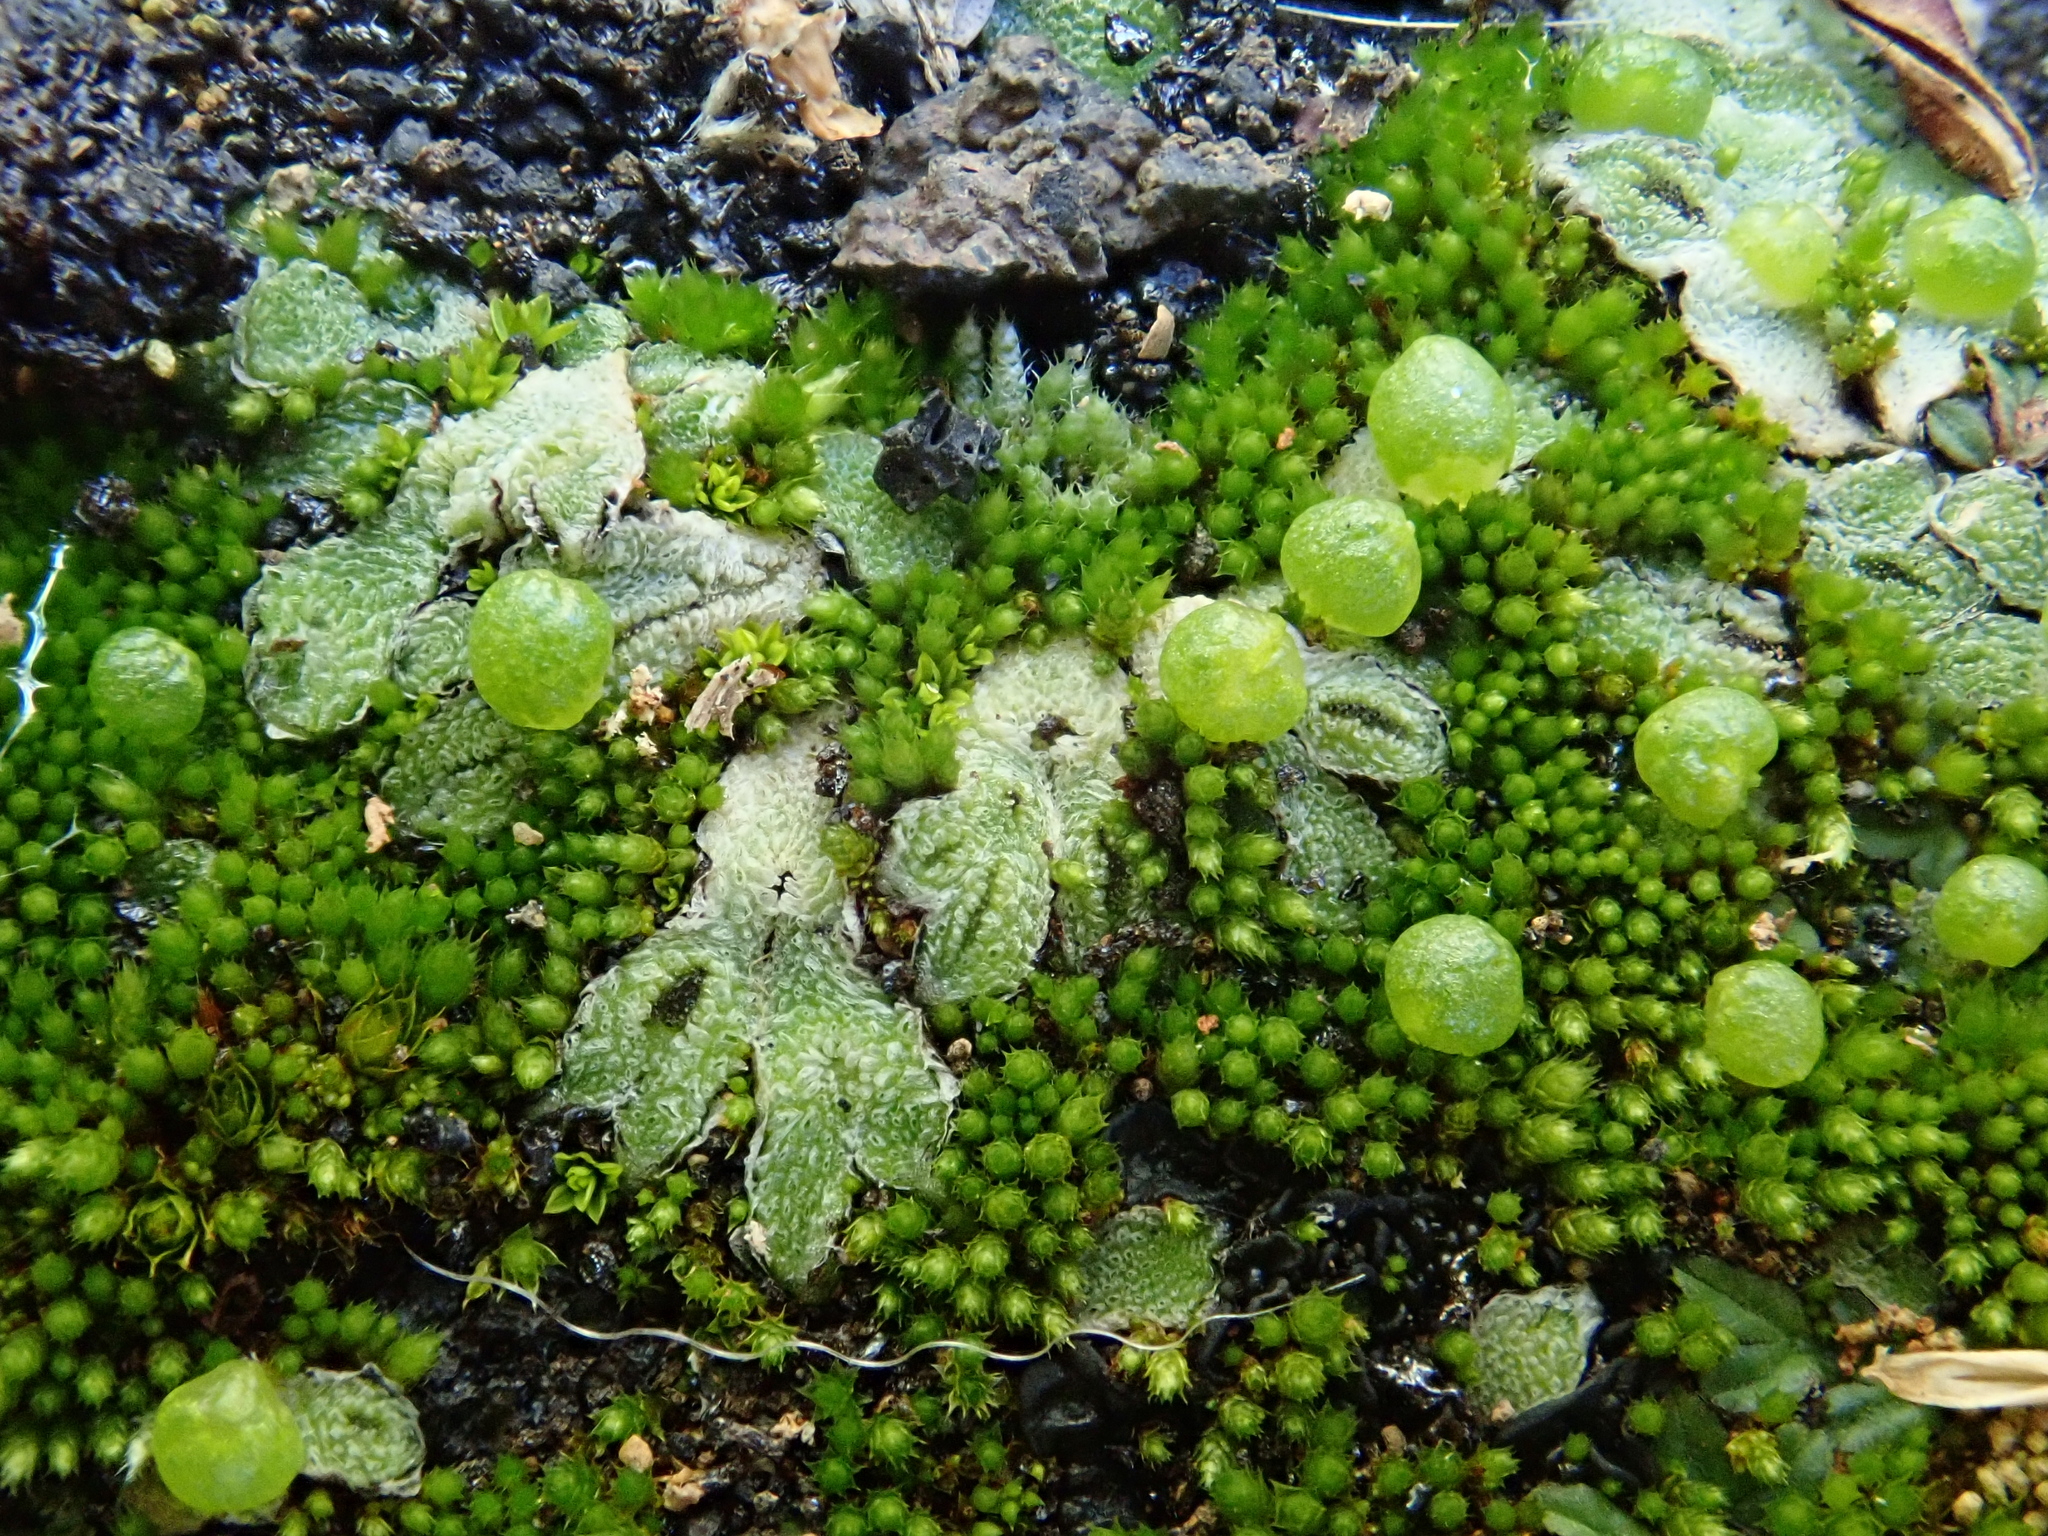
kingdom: Plantae
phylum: Marchantiophyta
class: Marchantiopsida
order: Marchantiales
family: Corsiniaceae
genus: Exormotheca
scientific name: Exormotheca pustulosa
